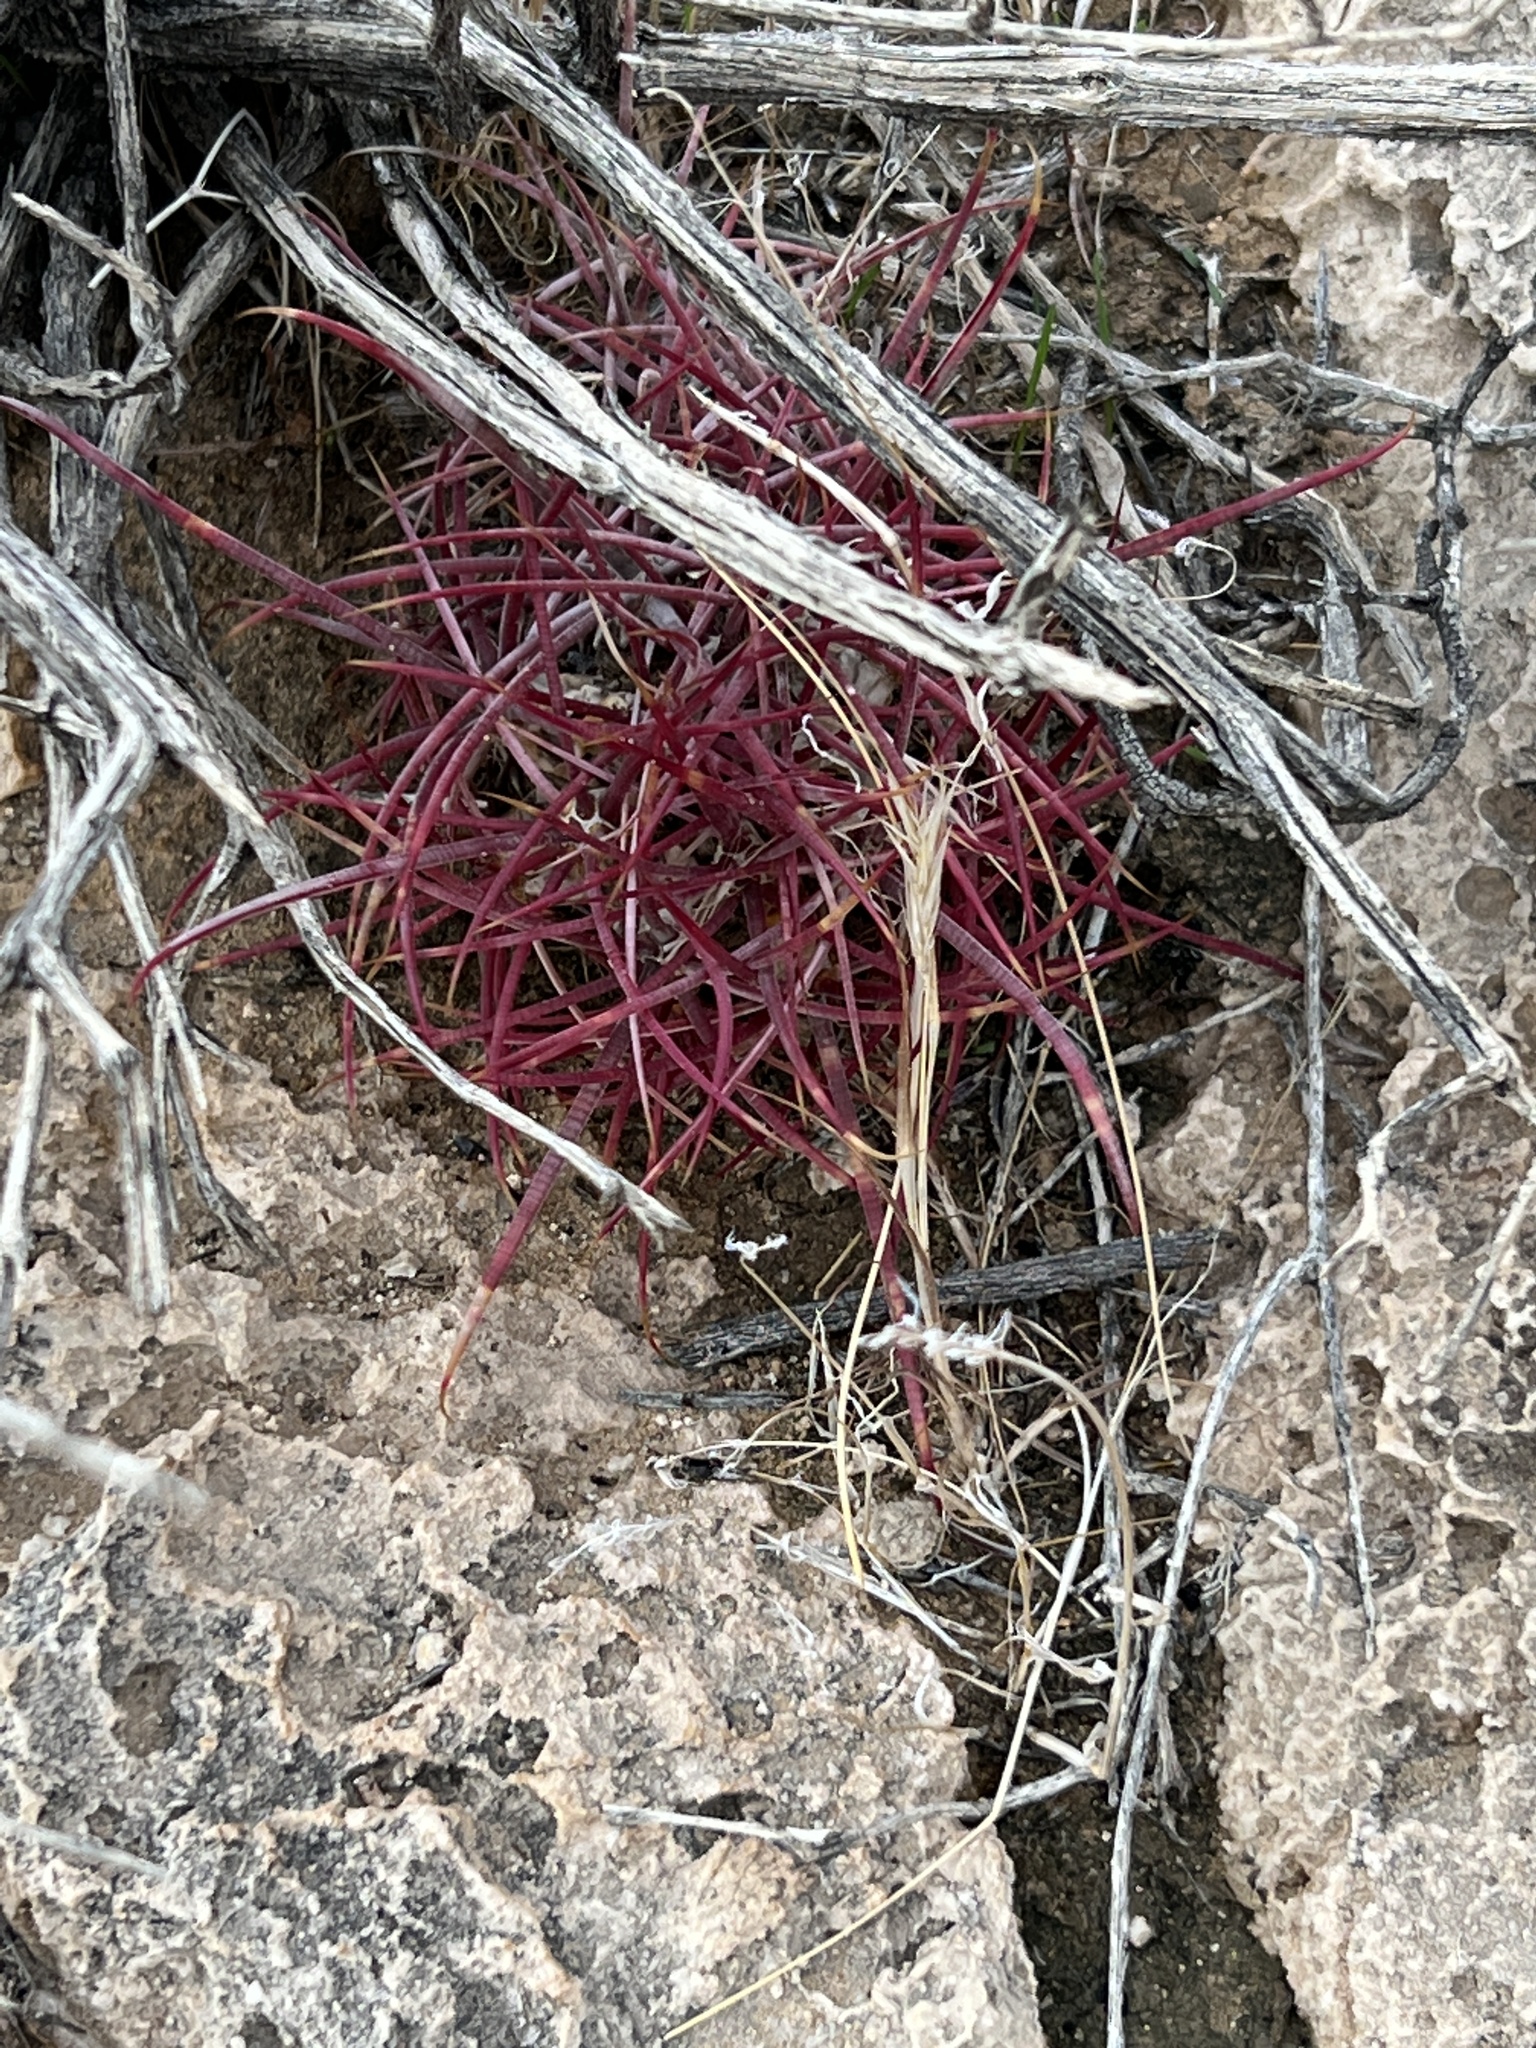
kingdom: Plantae
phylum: Tracheophyta
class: Magnoliopsida
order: Caryophyllales
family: Cactaceae
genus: Ferocactus
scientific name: Ferocactus cylindraceus
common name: California barrel cactus
